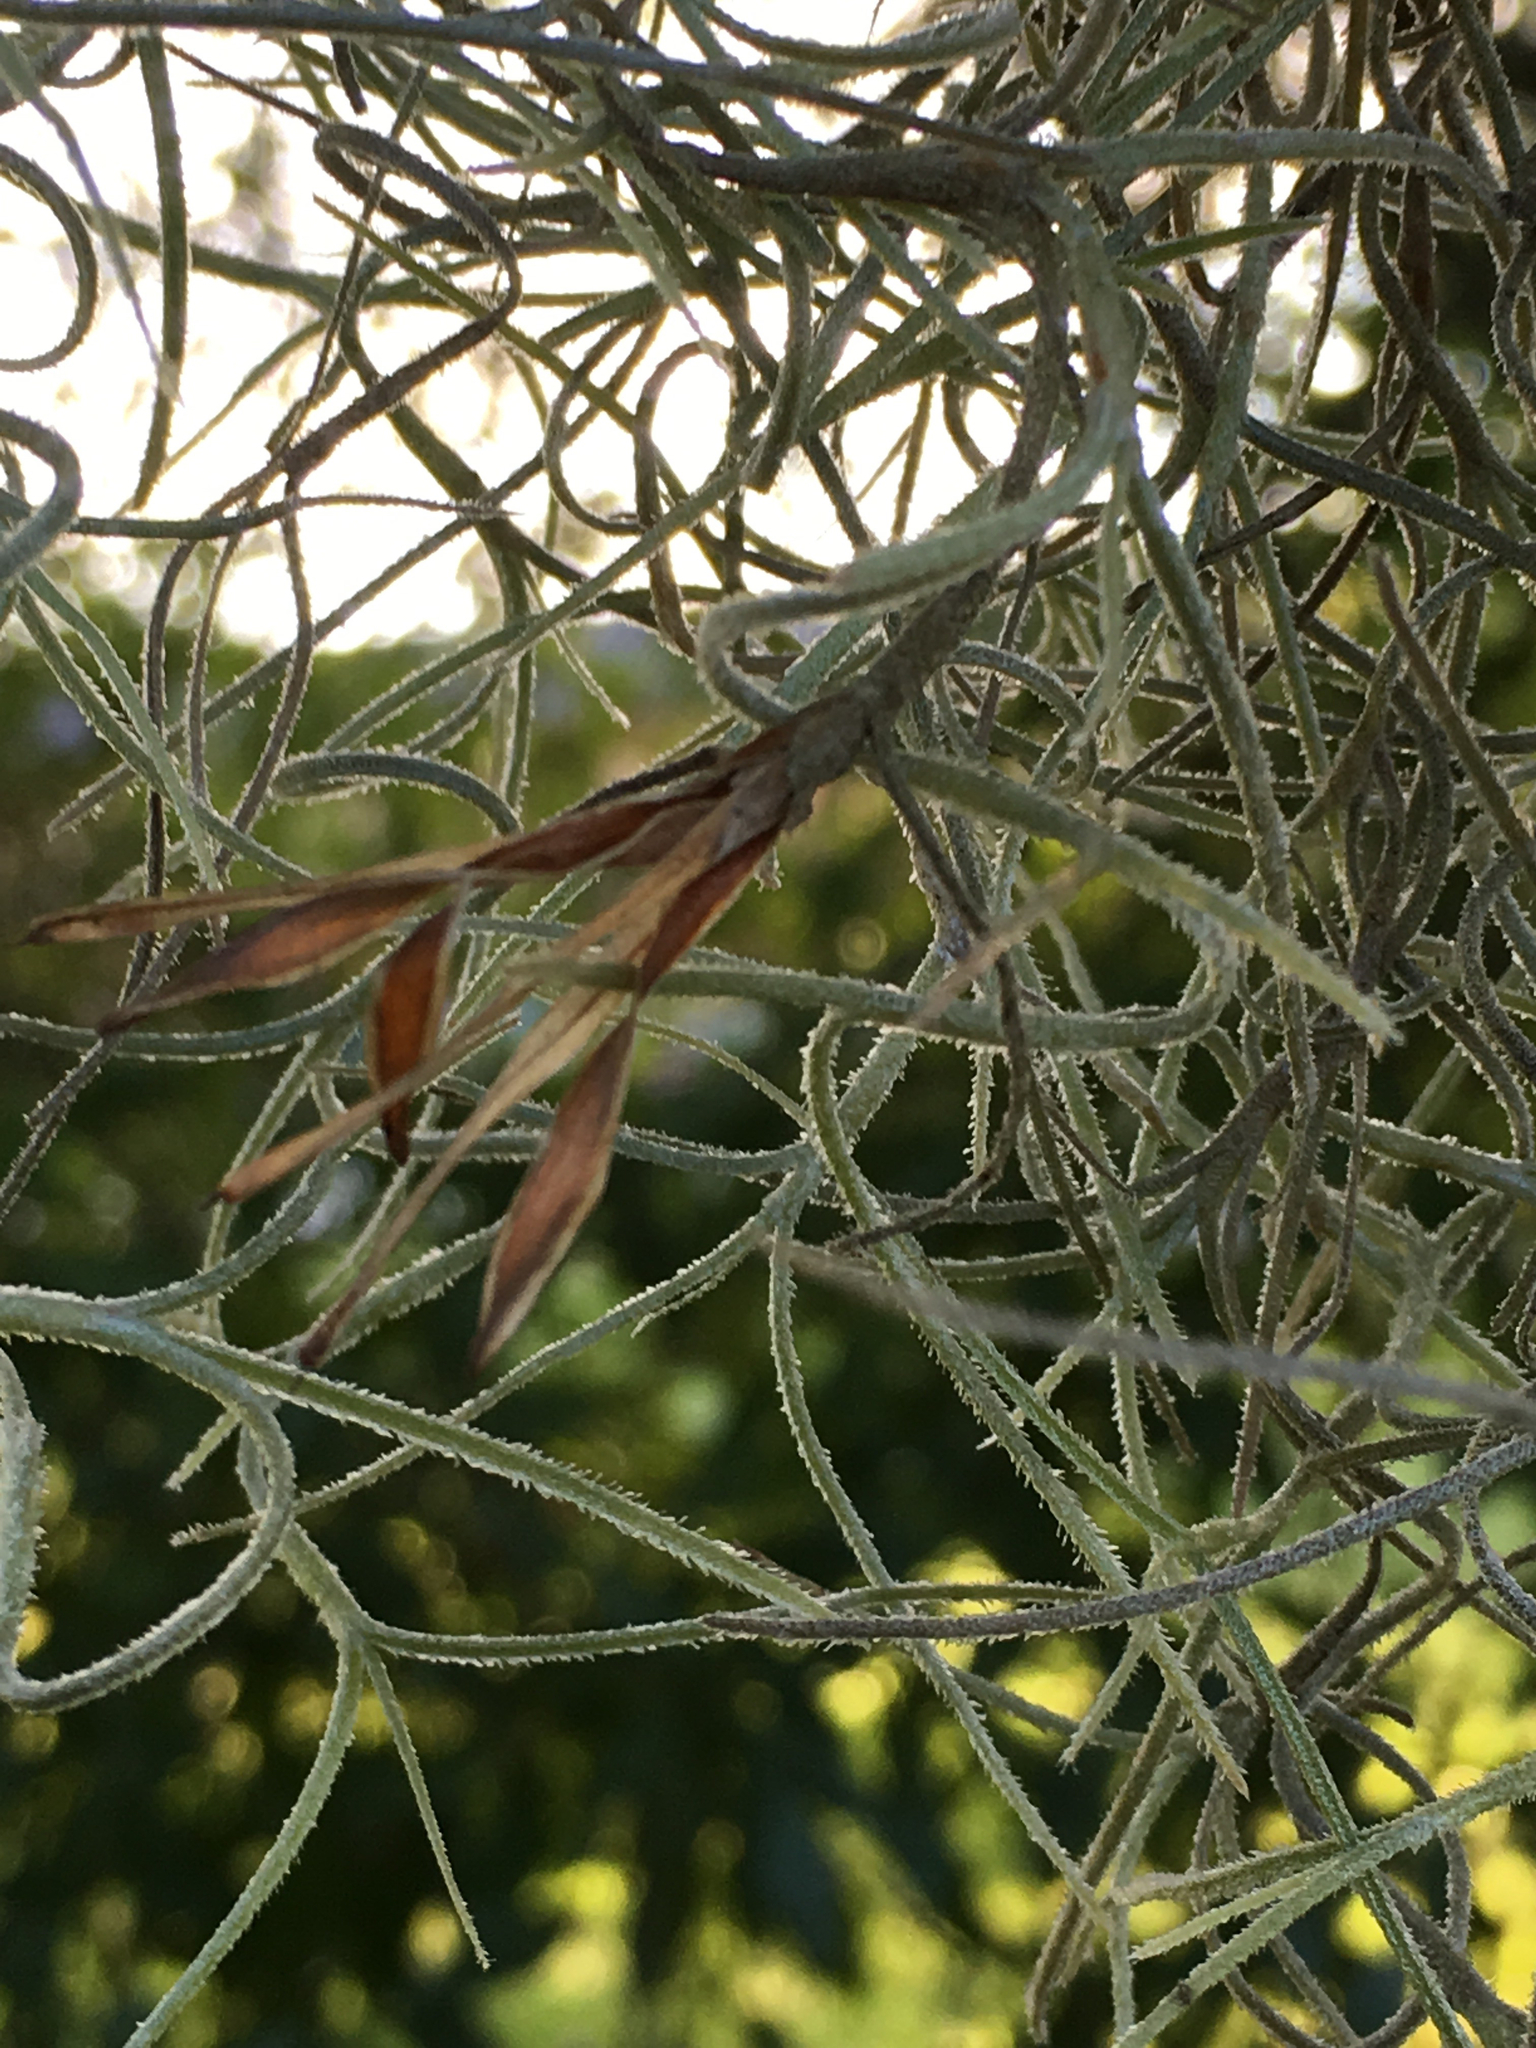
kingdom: Plantae
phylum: Tracheophyta
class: Liliopsida
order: Poales
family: Bromeliaceae
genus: Tillandsia
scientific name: Tillandsia usneoides
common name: Spanish moss
